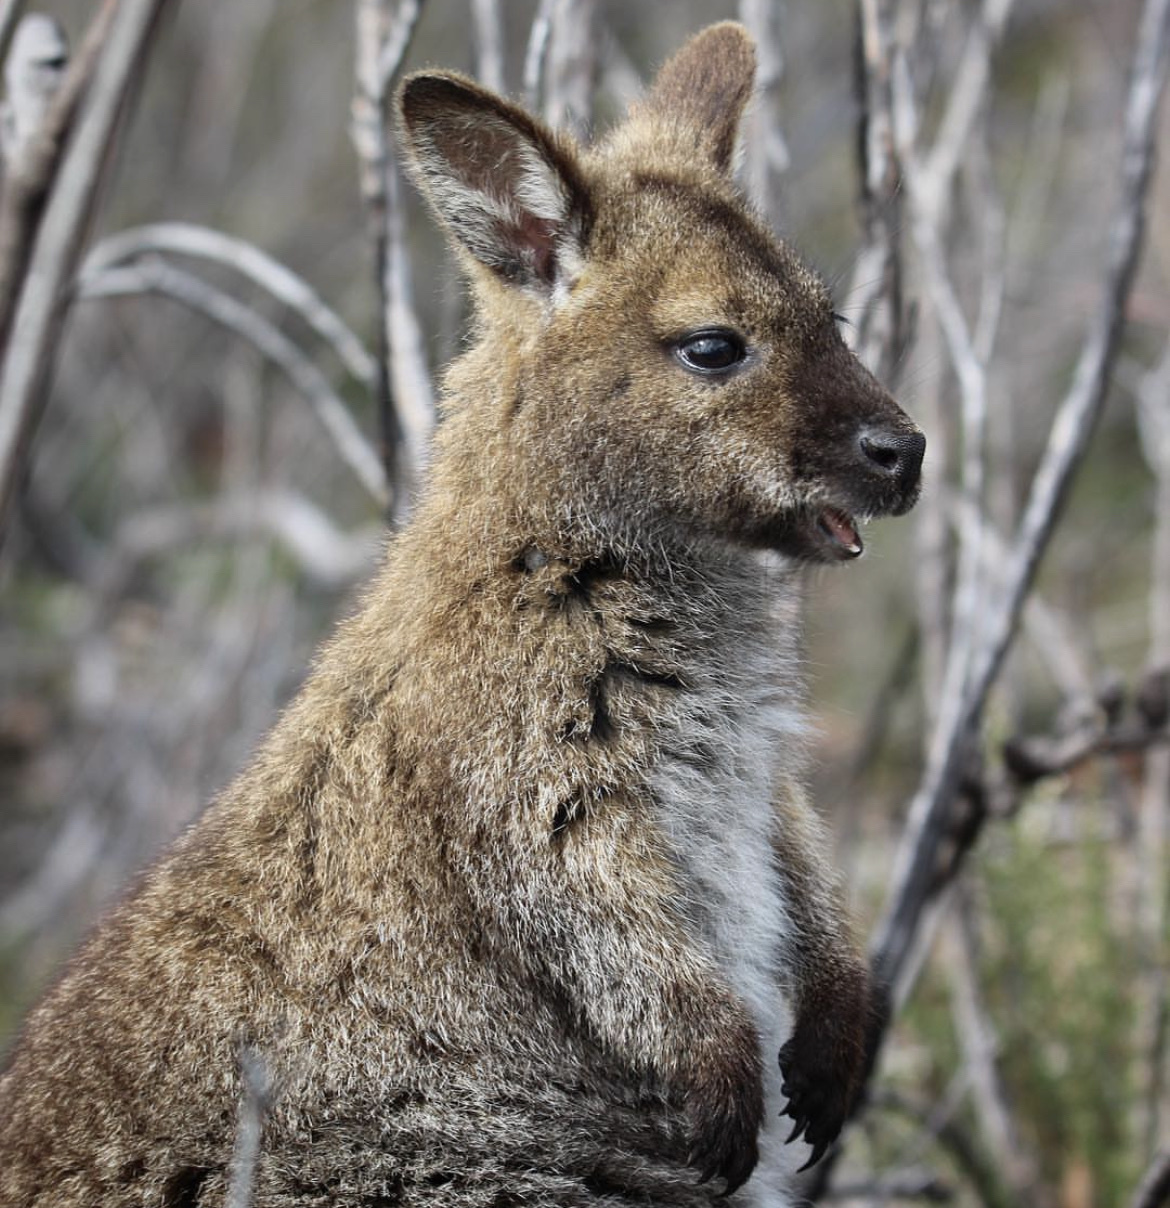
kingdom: Animalia
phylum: Chordata
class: Mammalia
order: Diprotodontia
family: Macropodidae
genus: Notamacropus
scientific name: Notamacropus rufogriseus
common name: Red-necked wallaby
